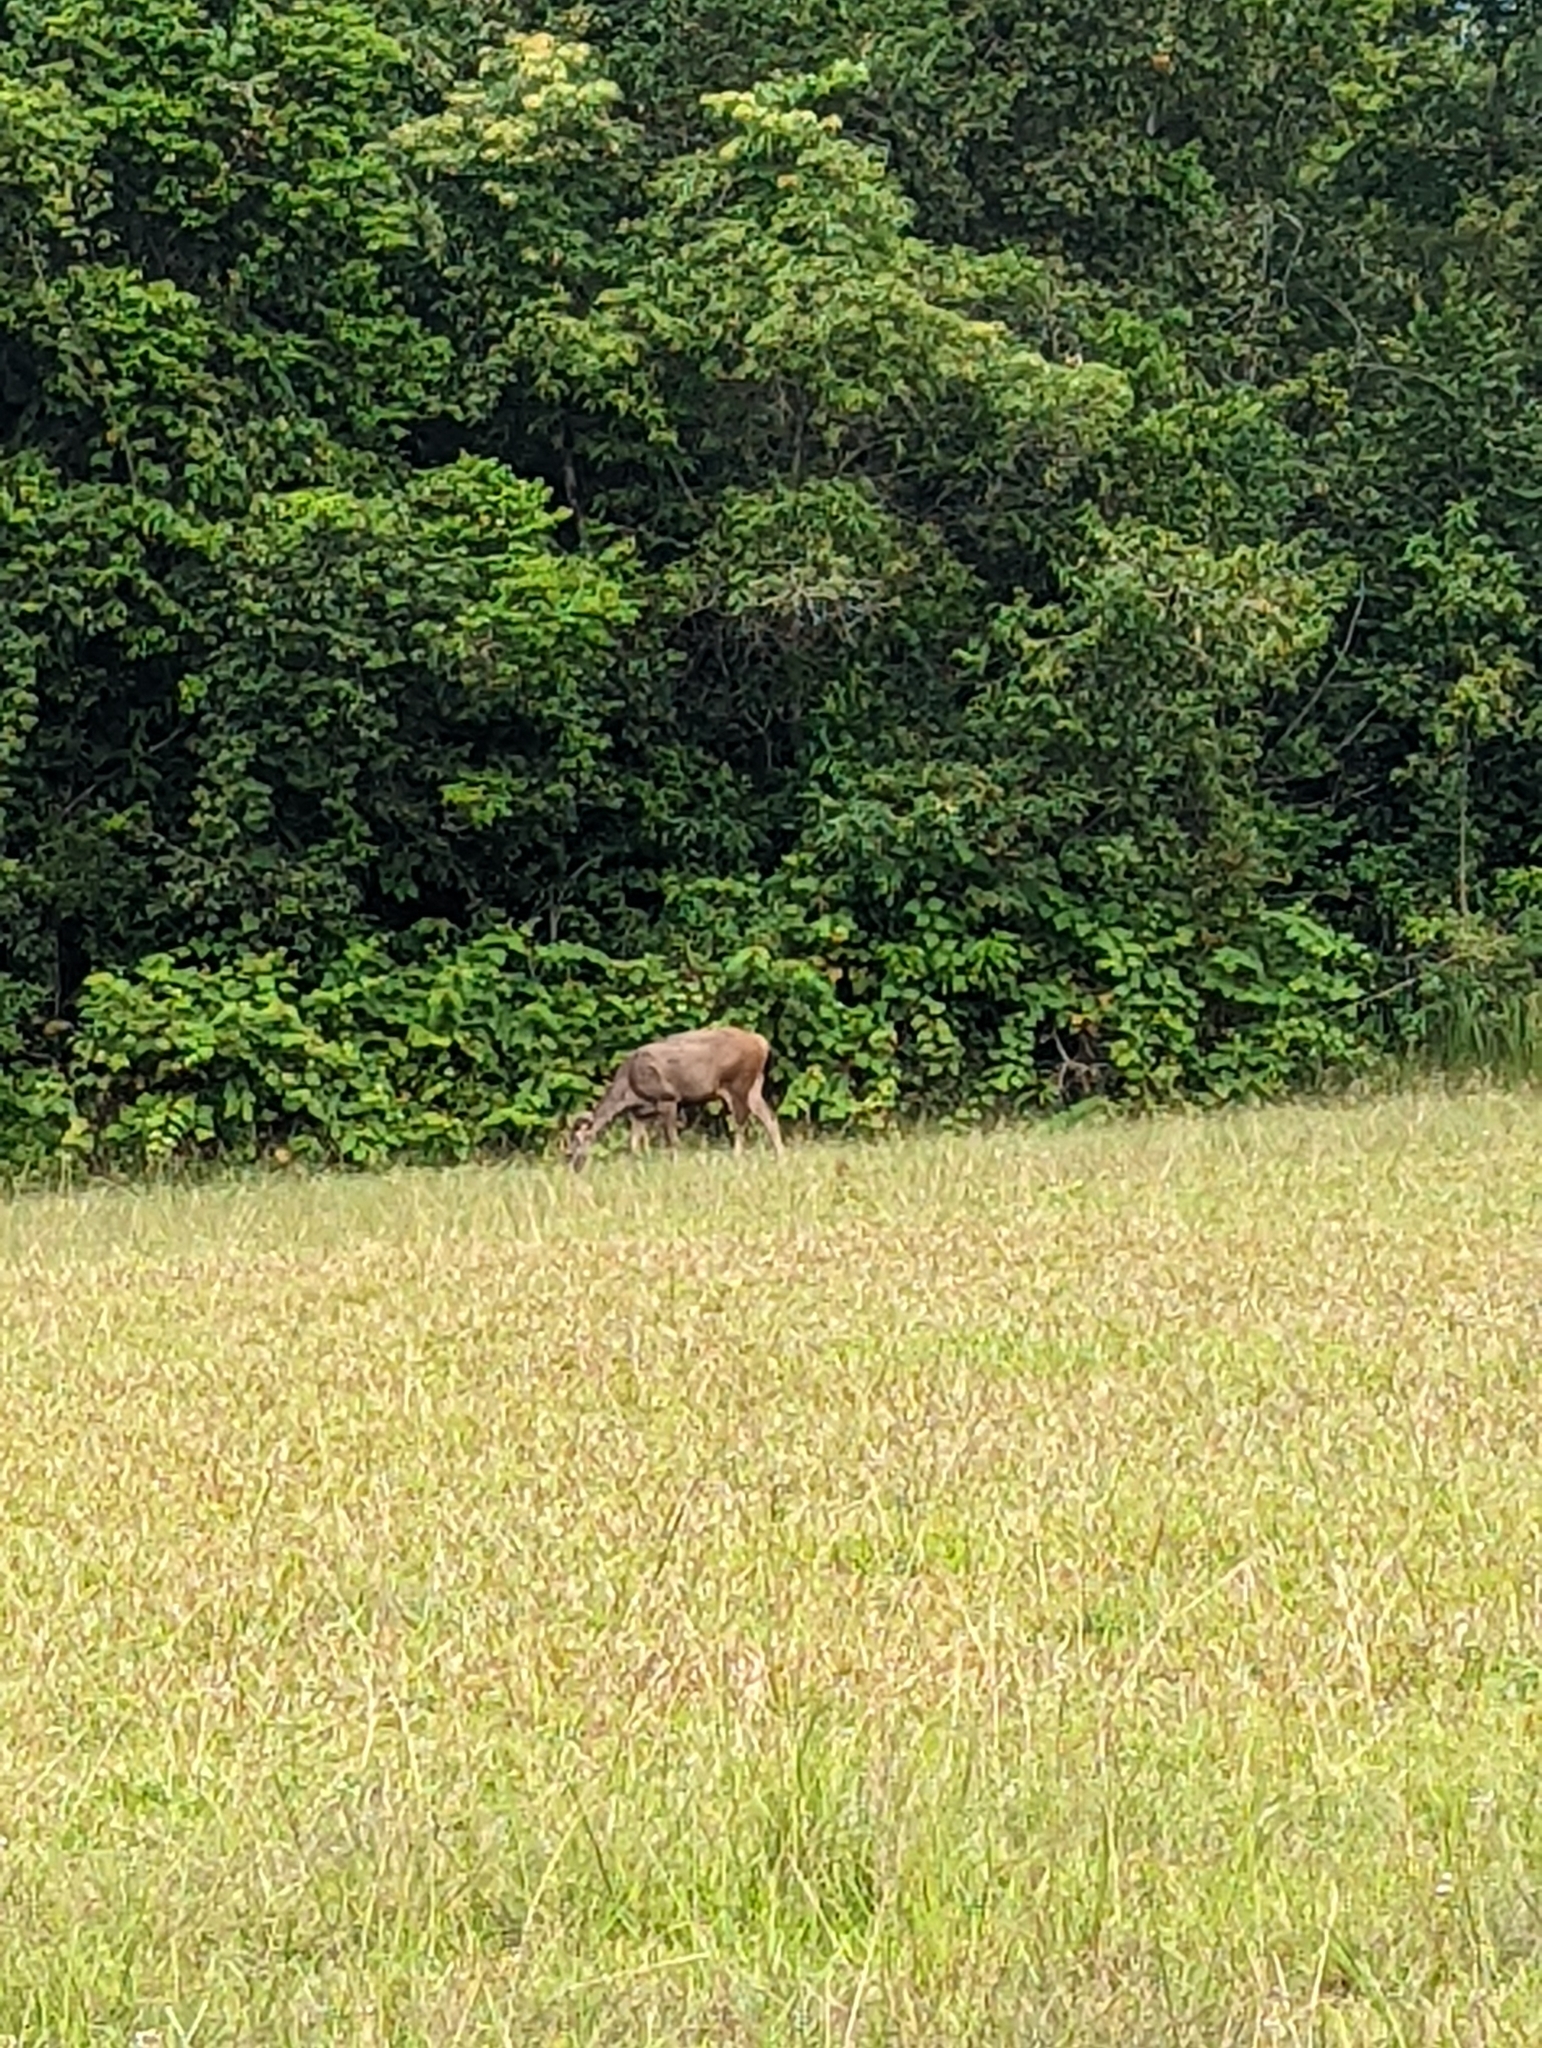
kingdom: Animalia
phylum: Chordata
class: Mammalia
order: Artiodactyla
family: Cervidae
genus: Rusa
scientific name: Rusa unicolor
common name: Sambar
